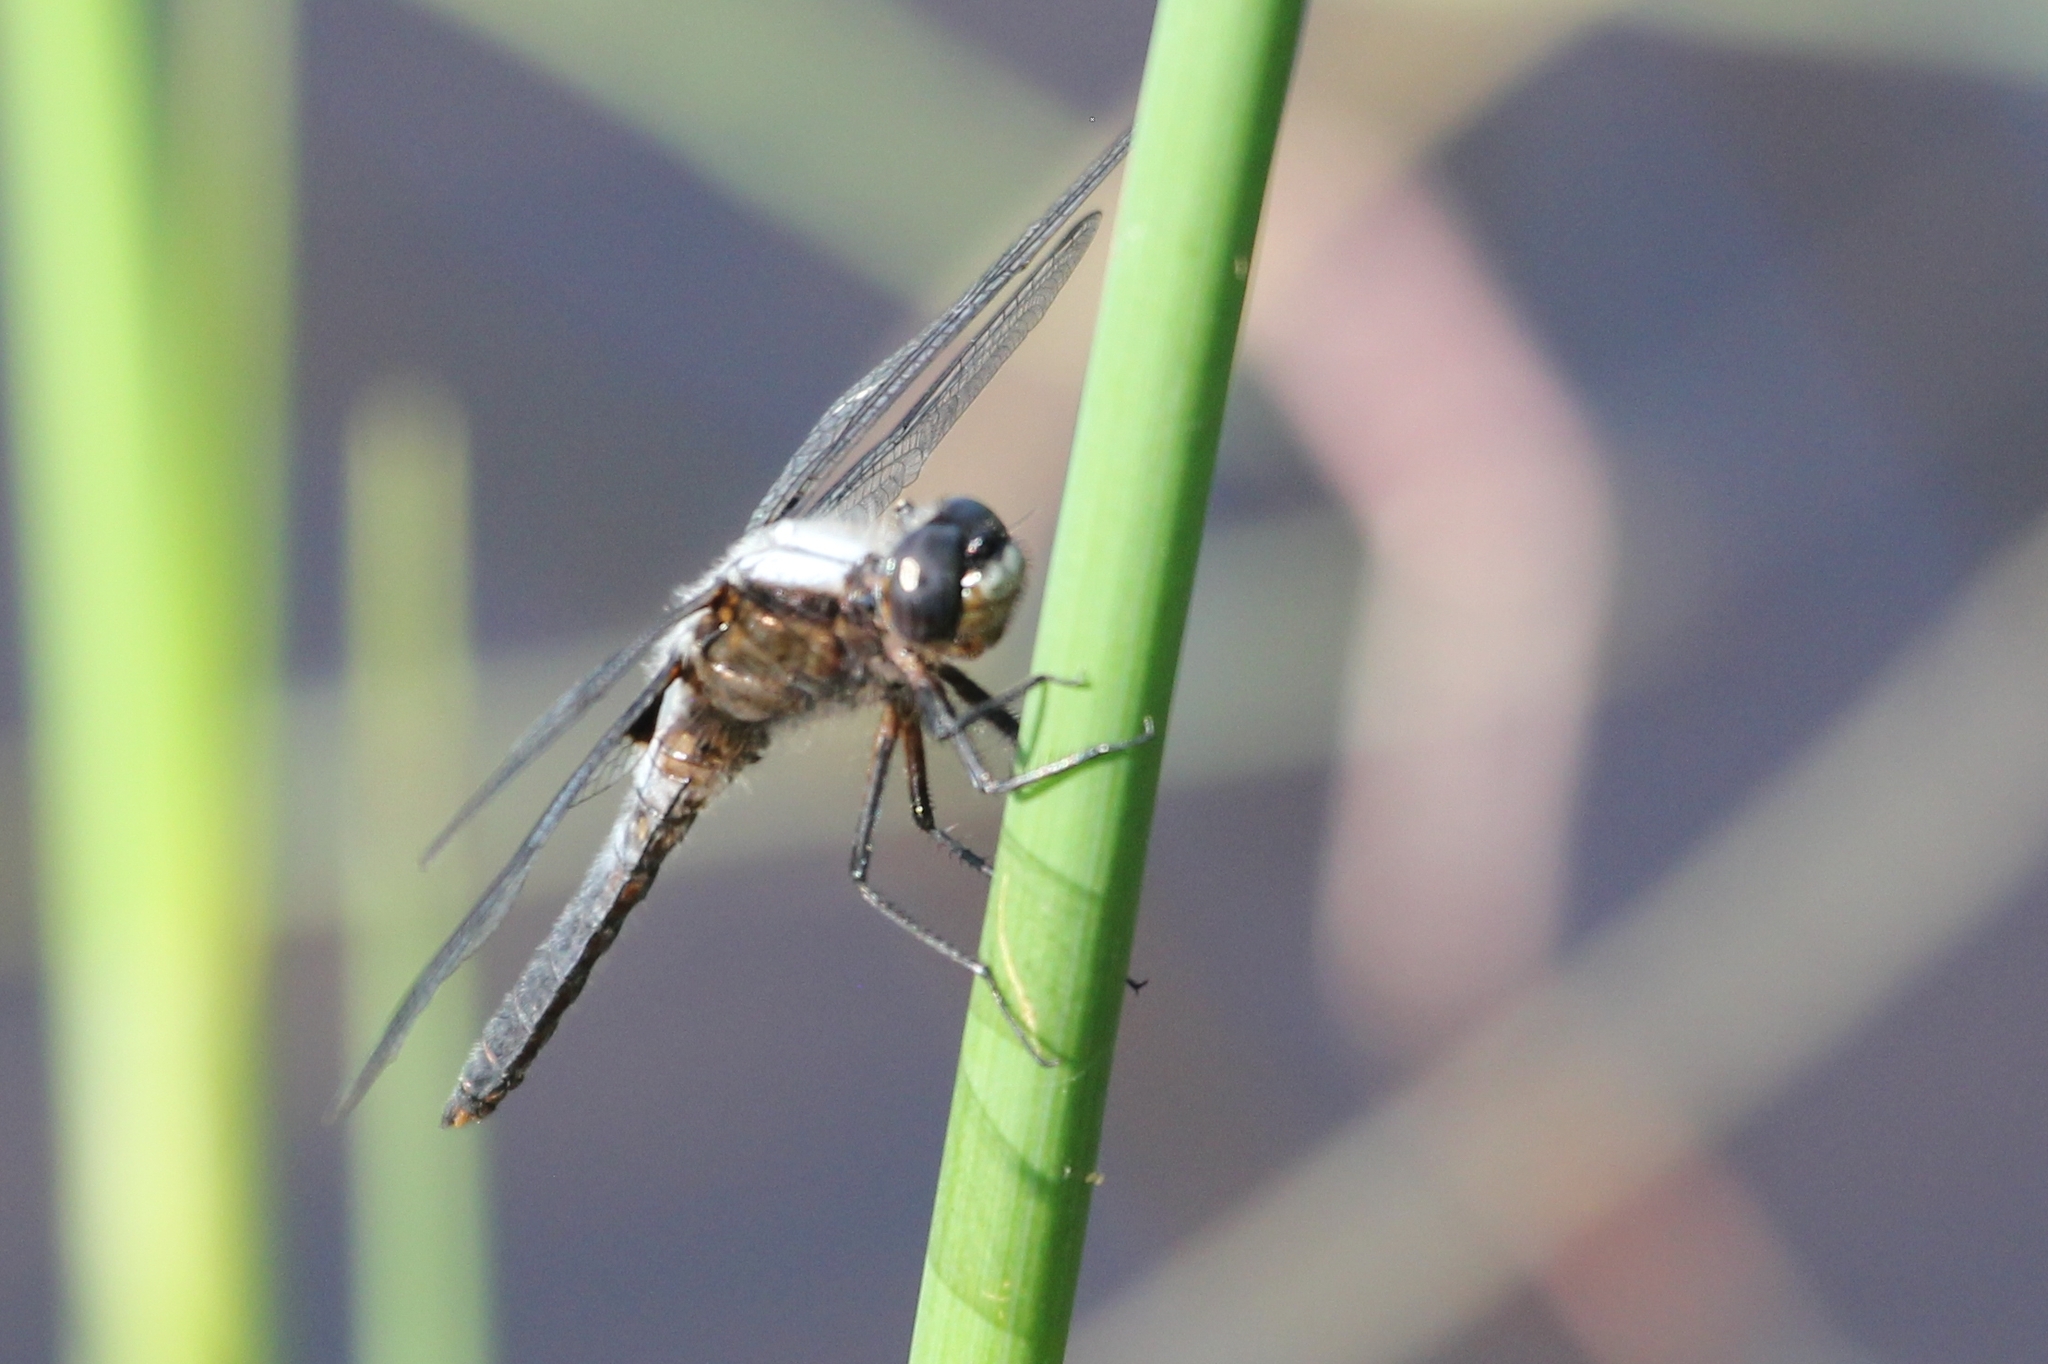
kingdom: Animalia
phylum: Arthropoda
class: Insecta
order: Odonata
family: Libellulidae
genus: Ladona
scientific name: Ladona julia
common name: Chalk-fronted corporal
